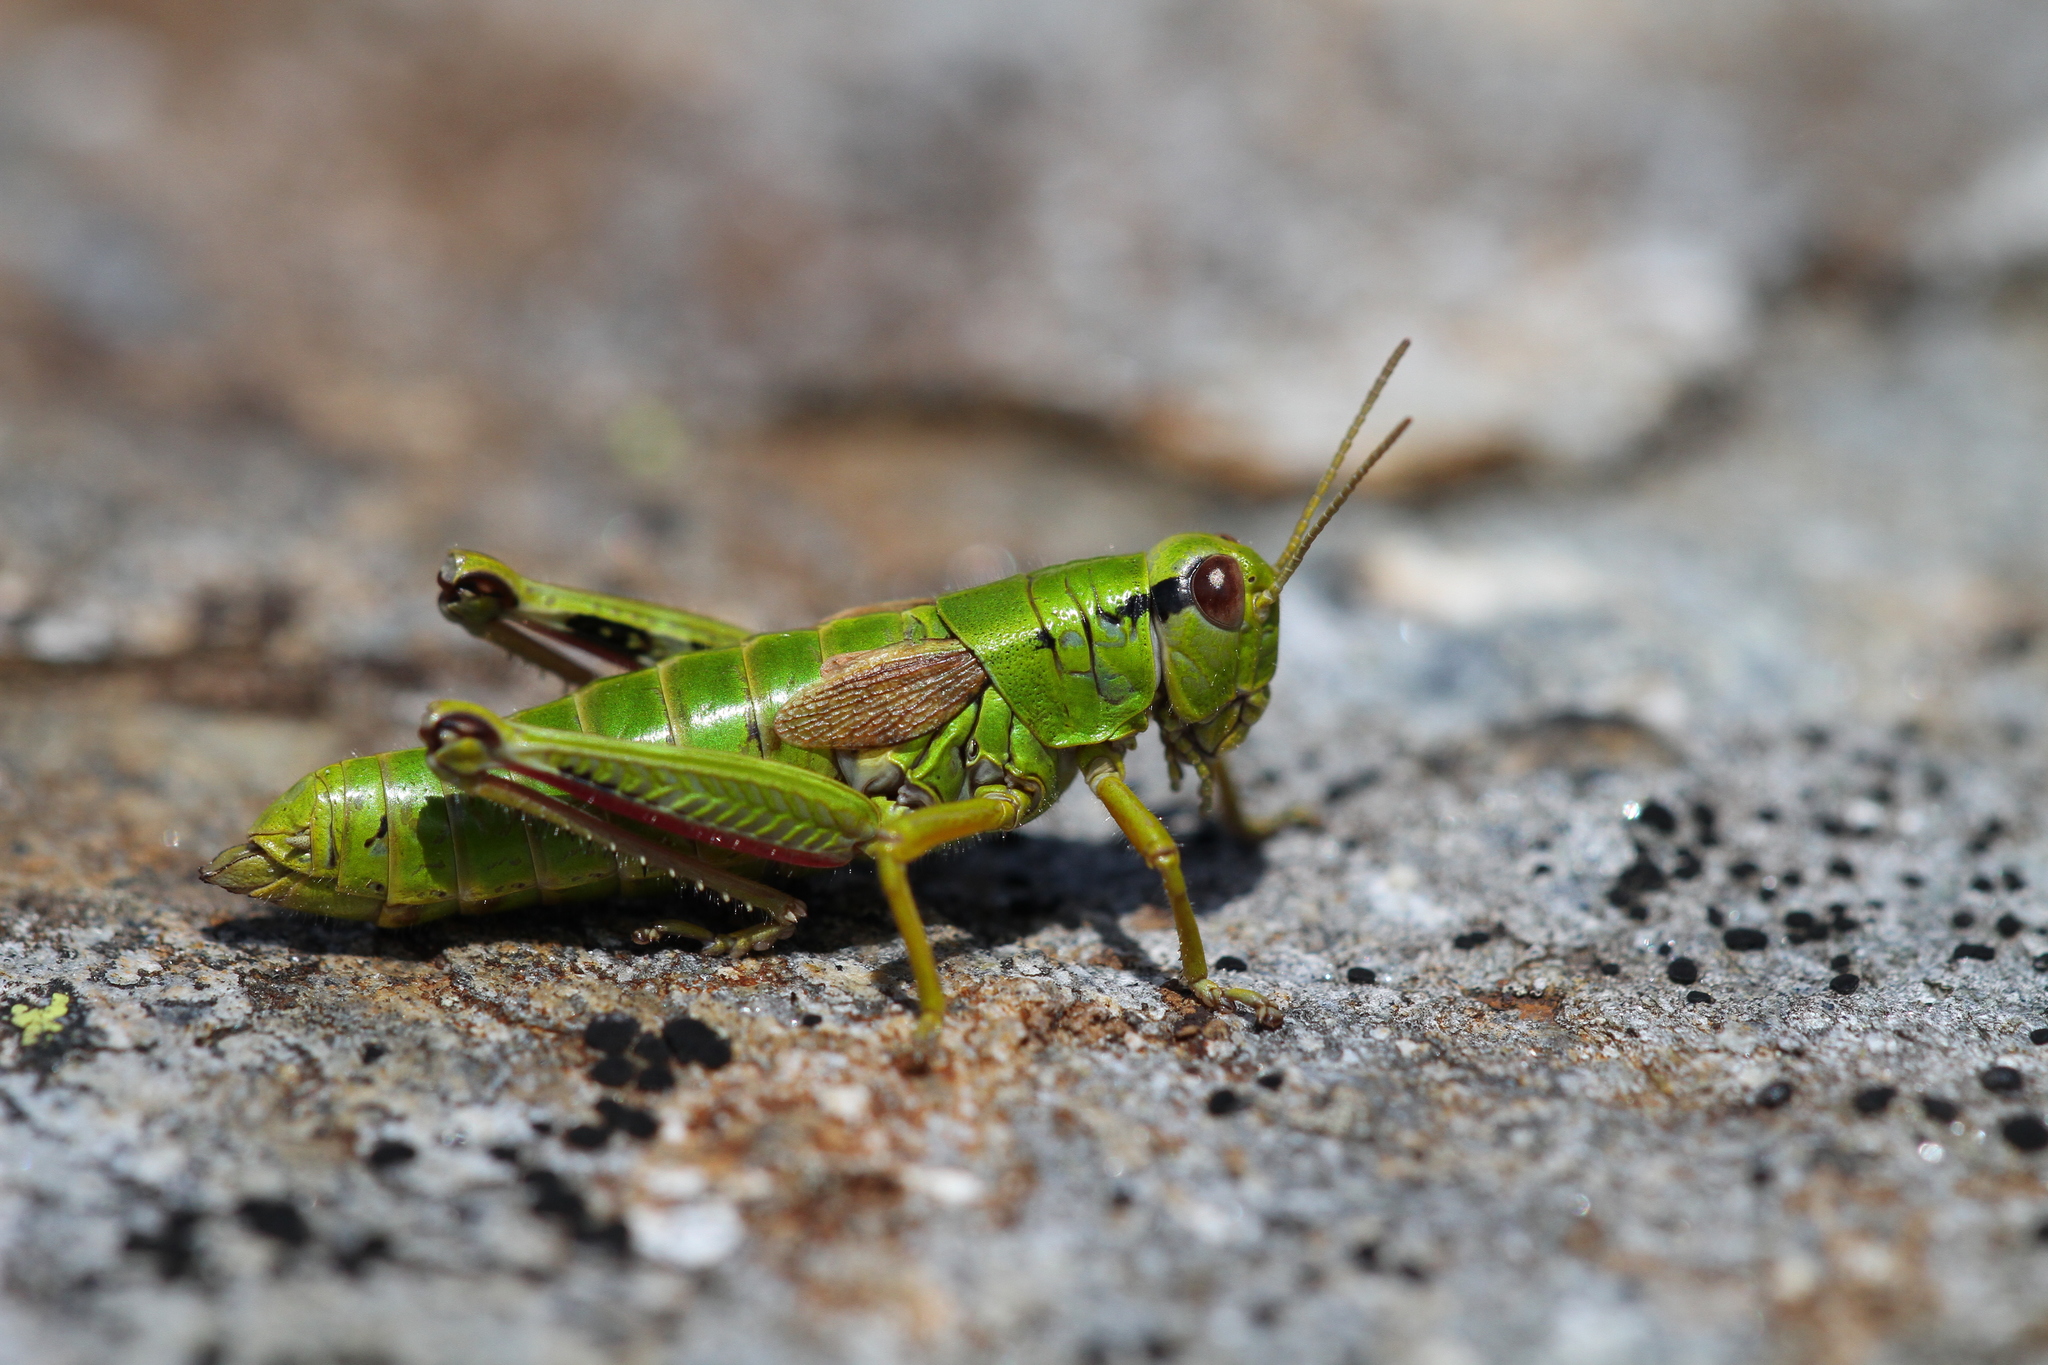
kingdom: Animalia
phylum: Arthropoda
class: Insecta
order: Orthoptera
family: Acrididae
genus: Miramella
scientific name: Miramella alpina
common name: Green mountain grasshopper
